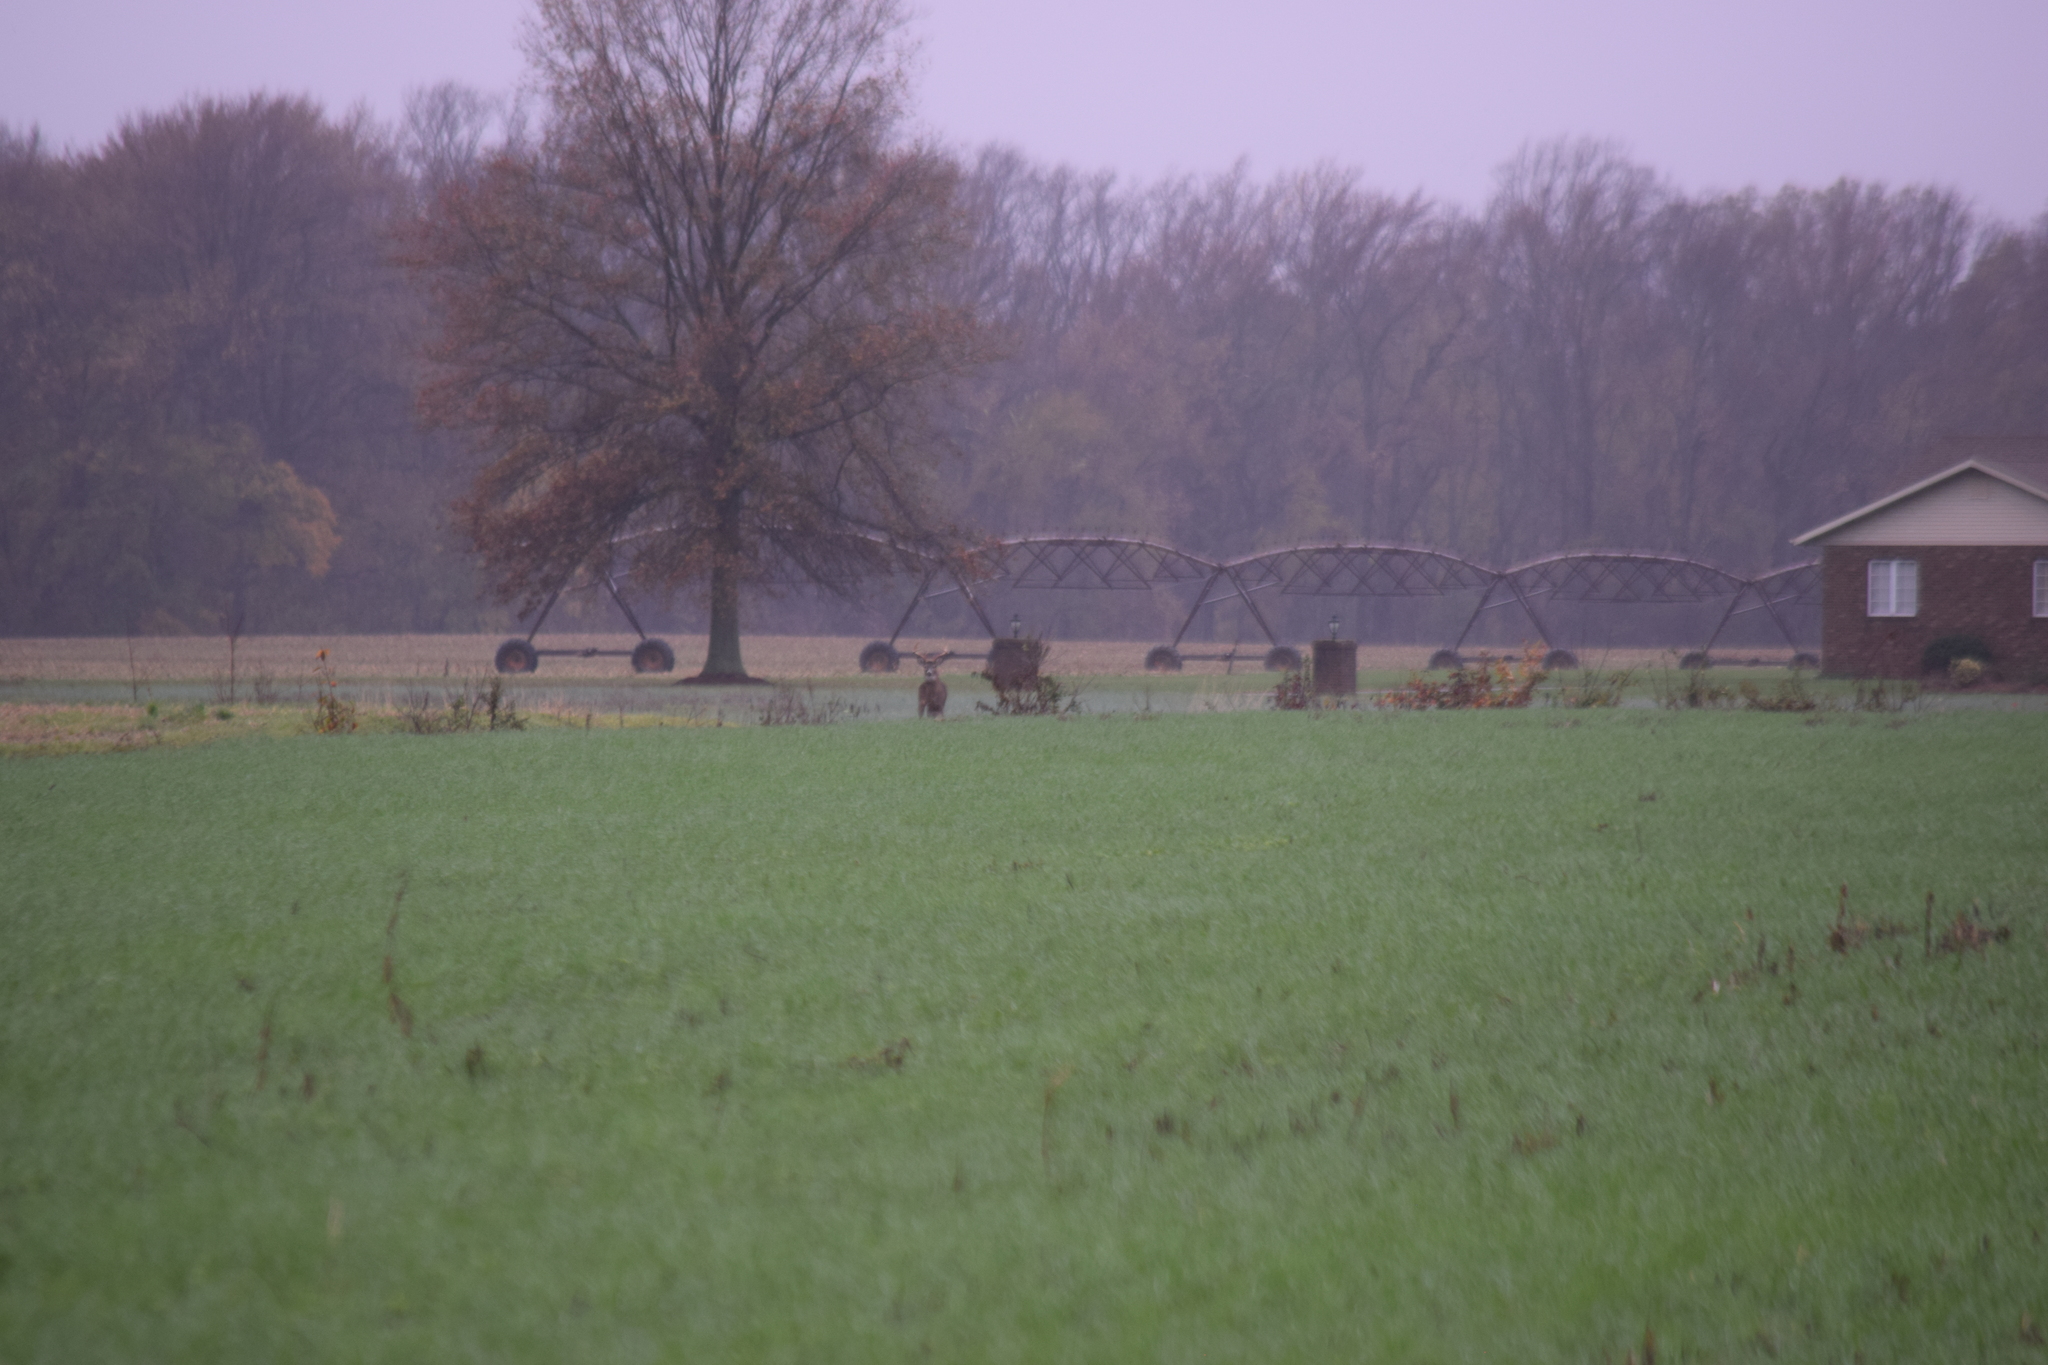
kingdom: Animalia
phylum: Chordata
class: Mammalia
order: Artiodactyla
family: Cervidae
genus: Odocoileus
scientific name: Odocoileus virginianus
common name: White-tailed deer
